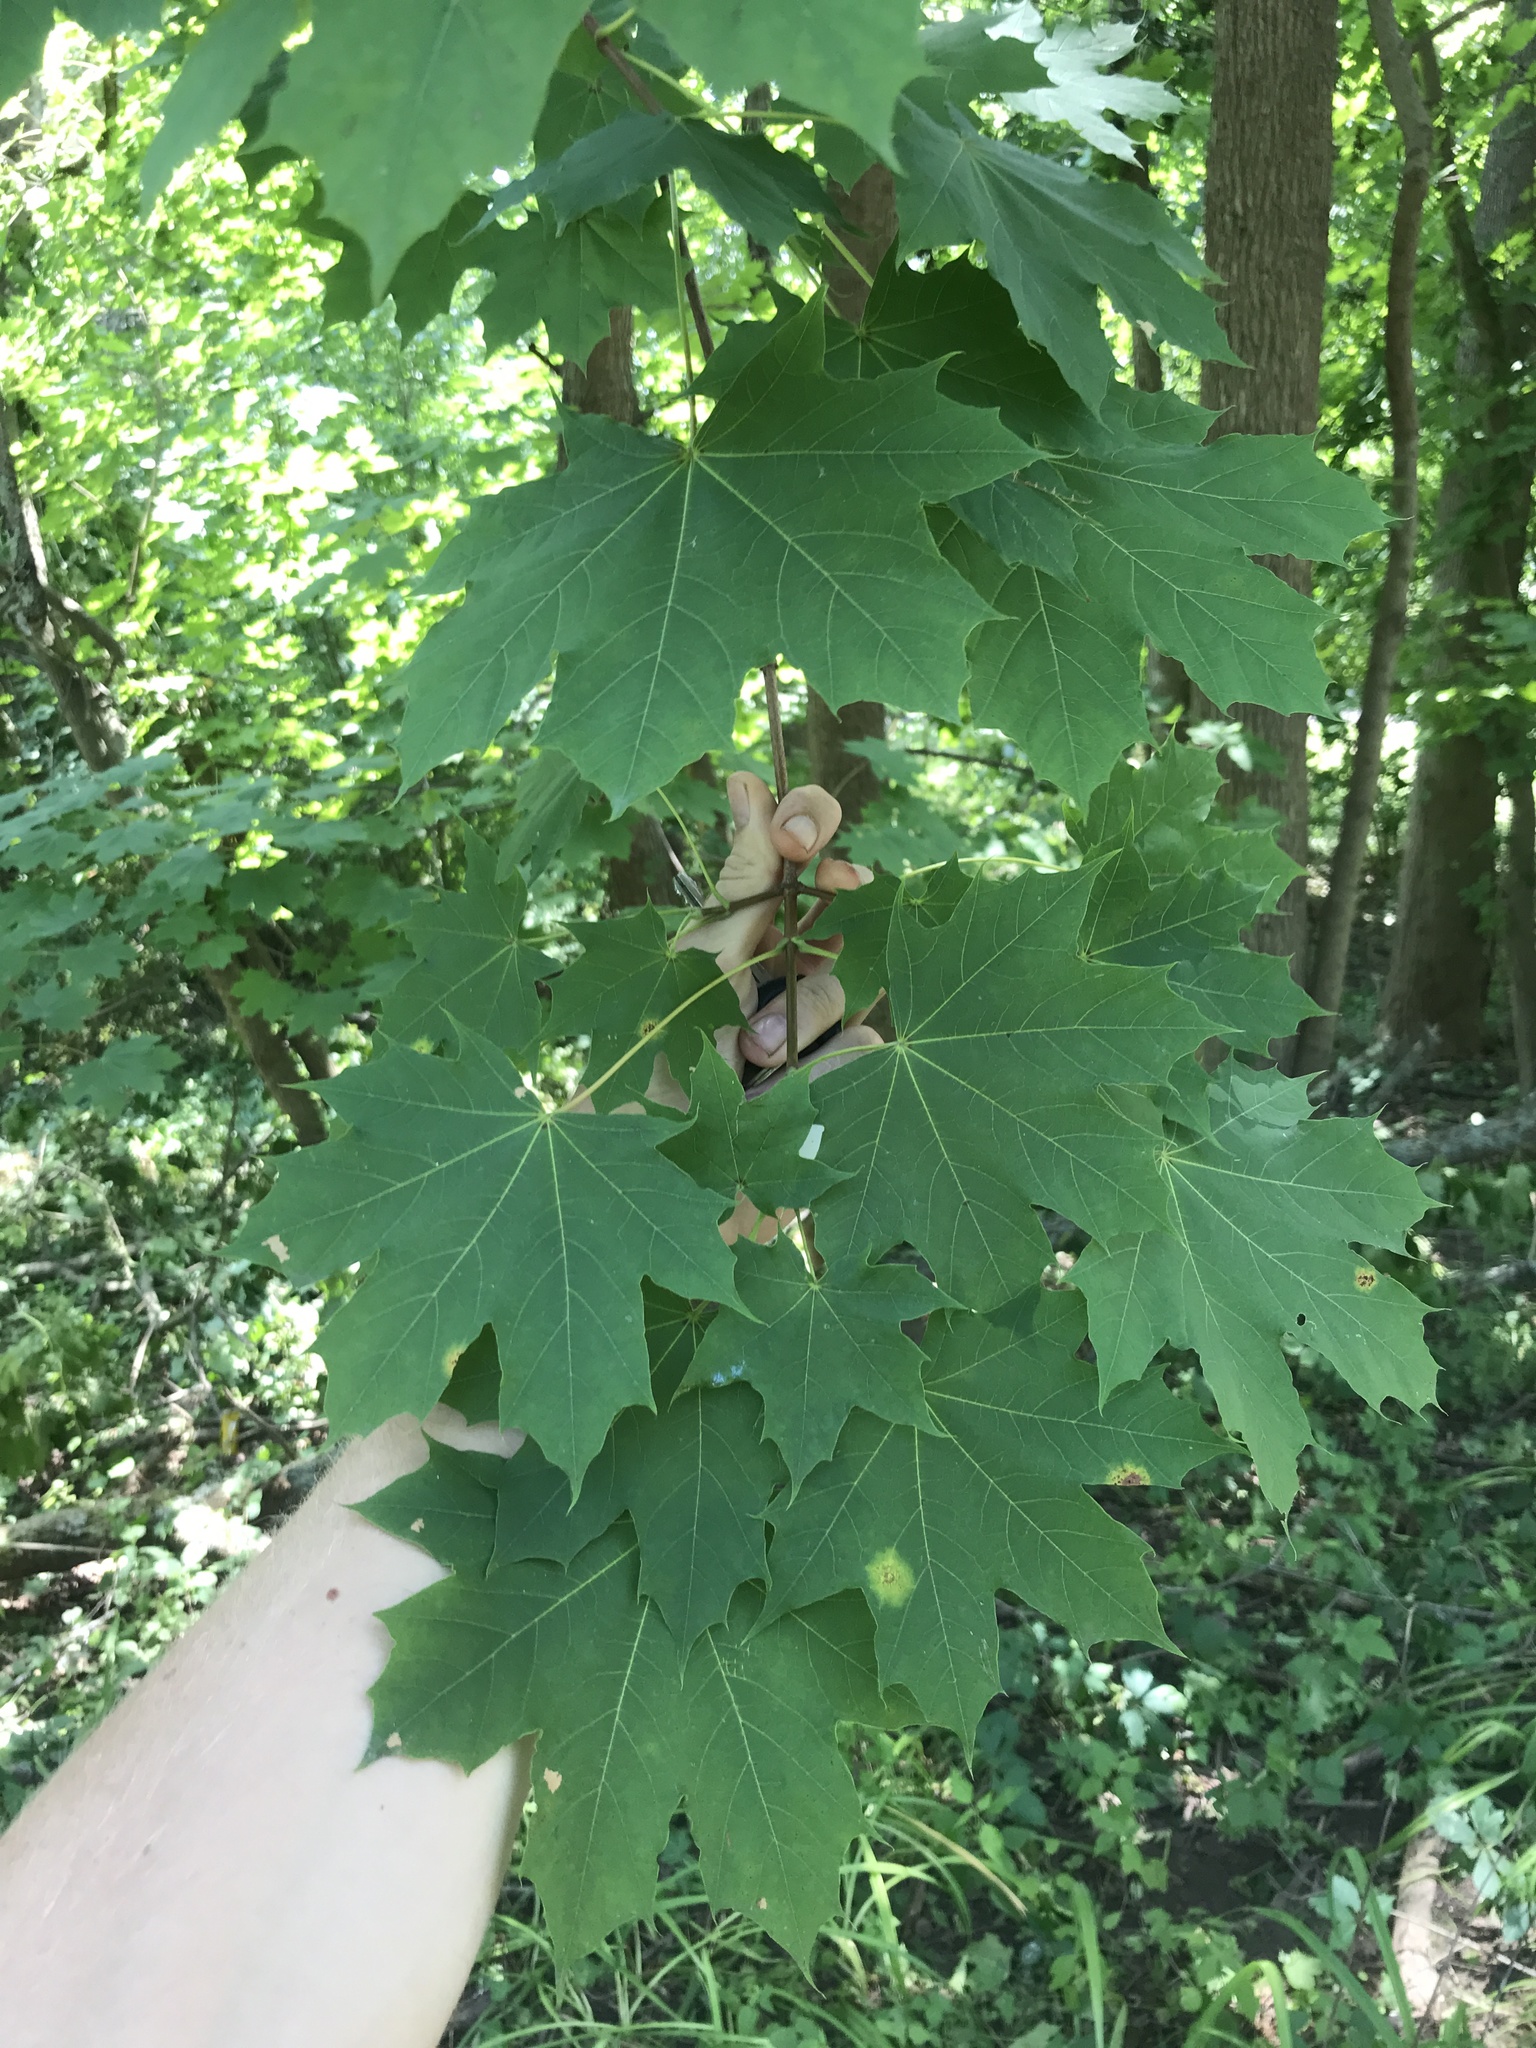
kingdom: Plantae
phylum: Tracheophyta
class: Magnoliopsida
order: Sapindales
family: Sapindaceae
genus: Acer
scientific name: Acer platanoides
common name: Norway maple
